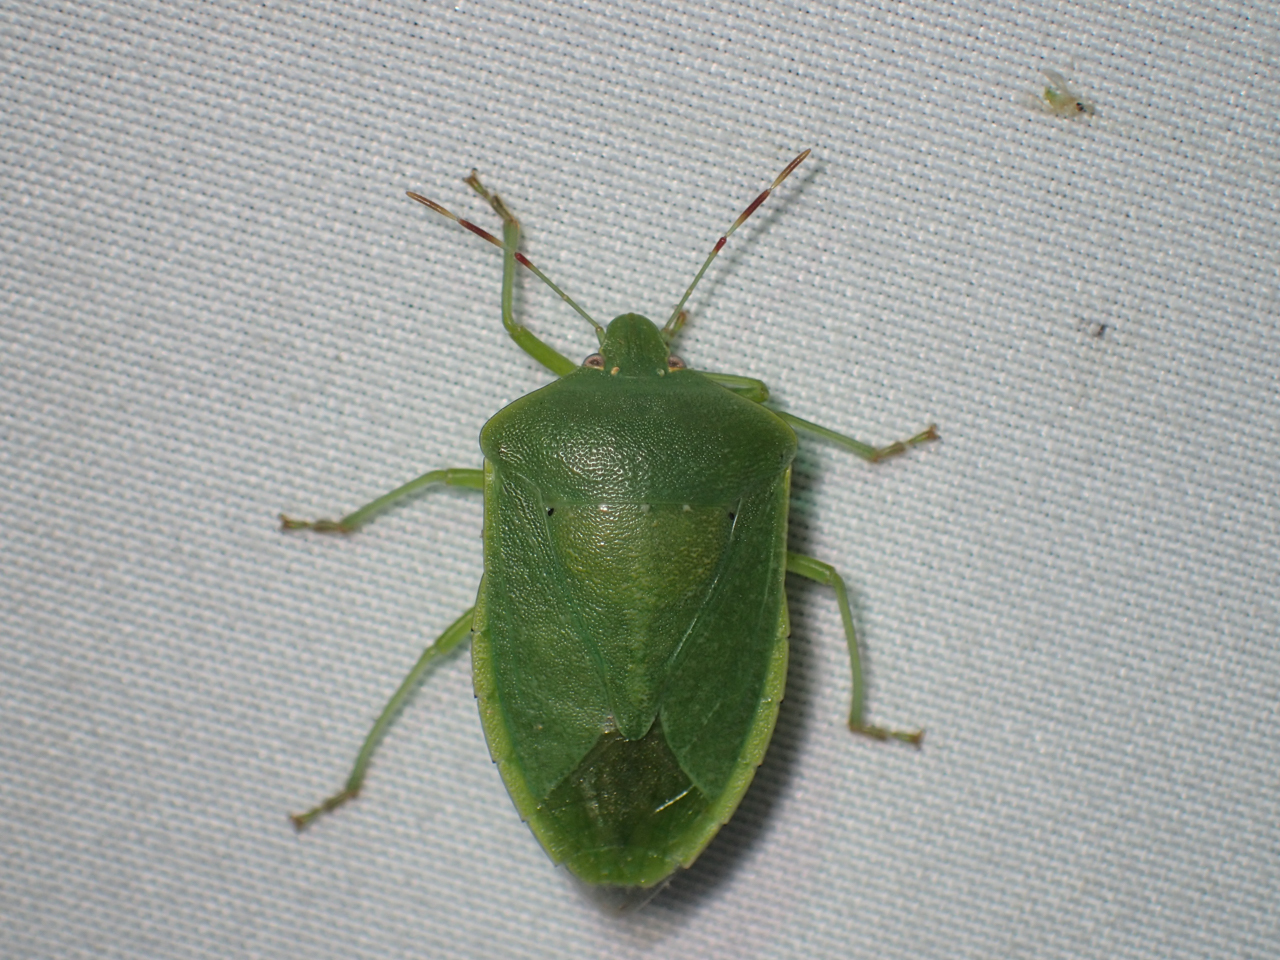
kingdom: Animalia
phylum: Arthropoda
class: Insecta
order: Hemiptera
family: Pentatomidae
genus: Nezara
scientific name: Nezara viridula
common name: Southern green stink bug
